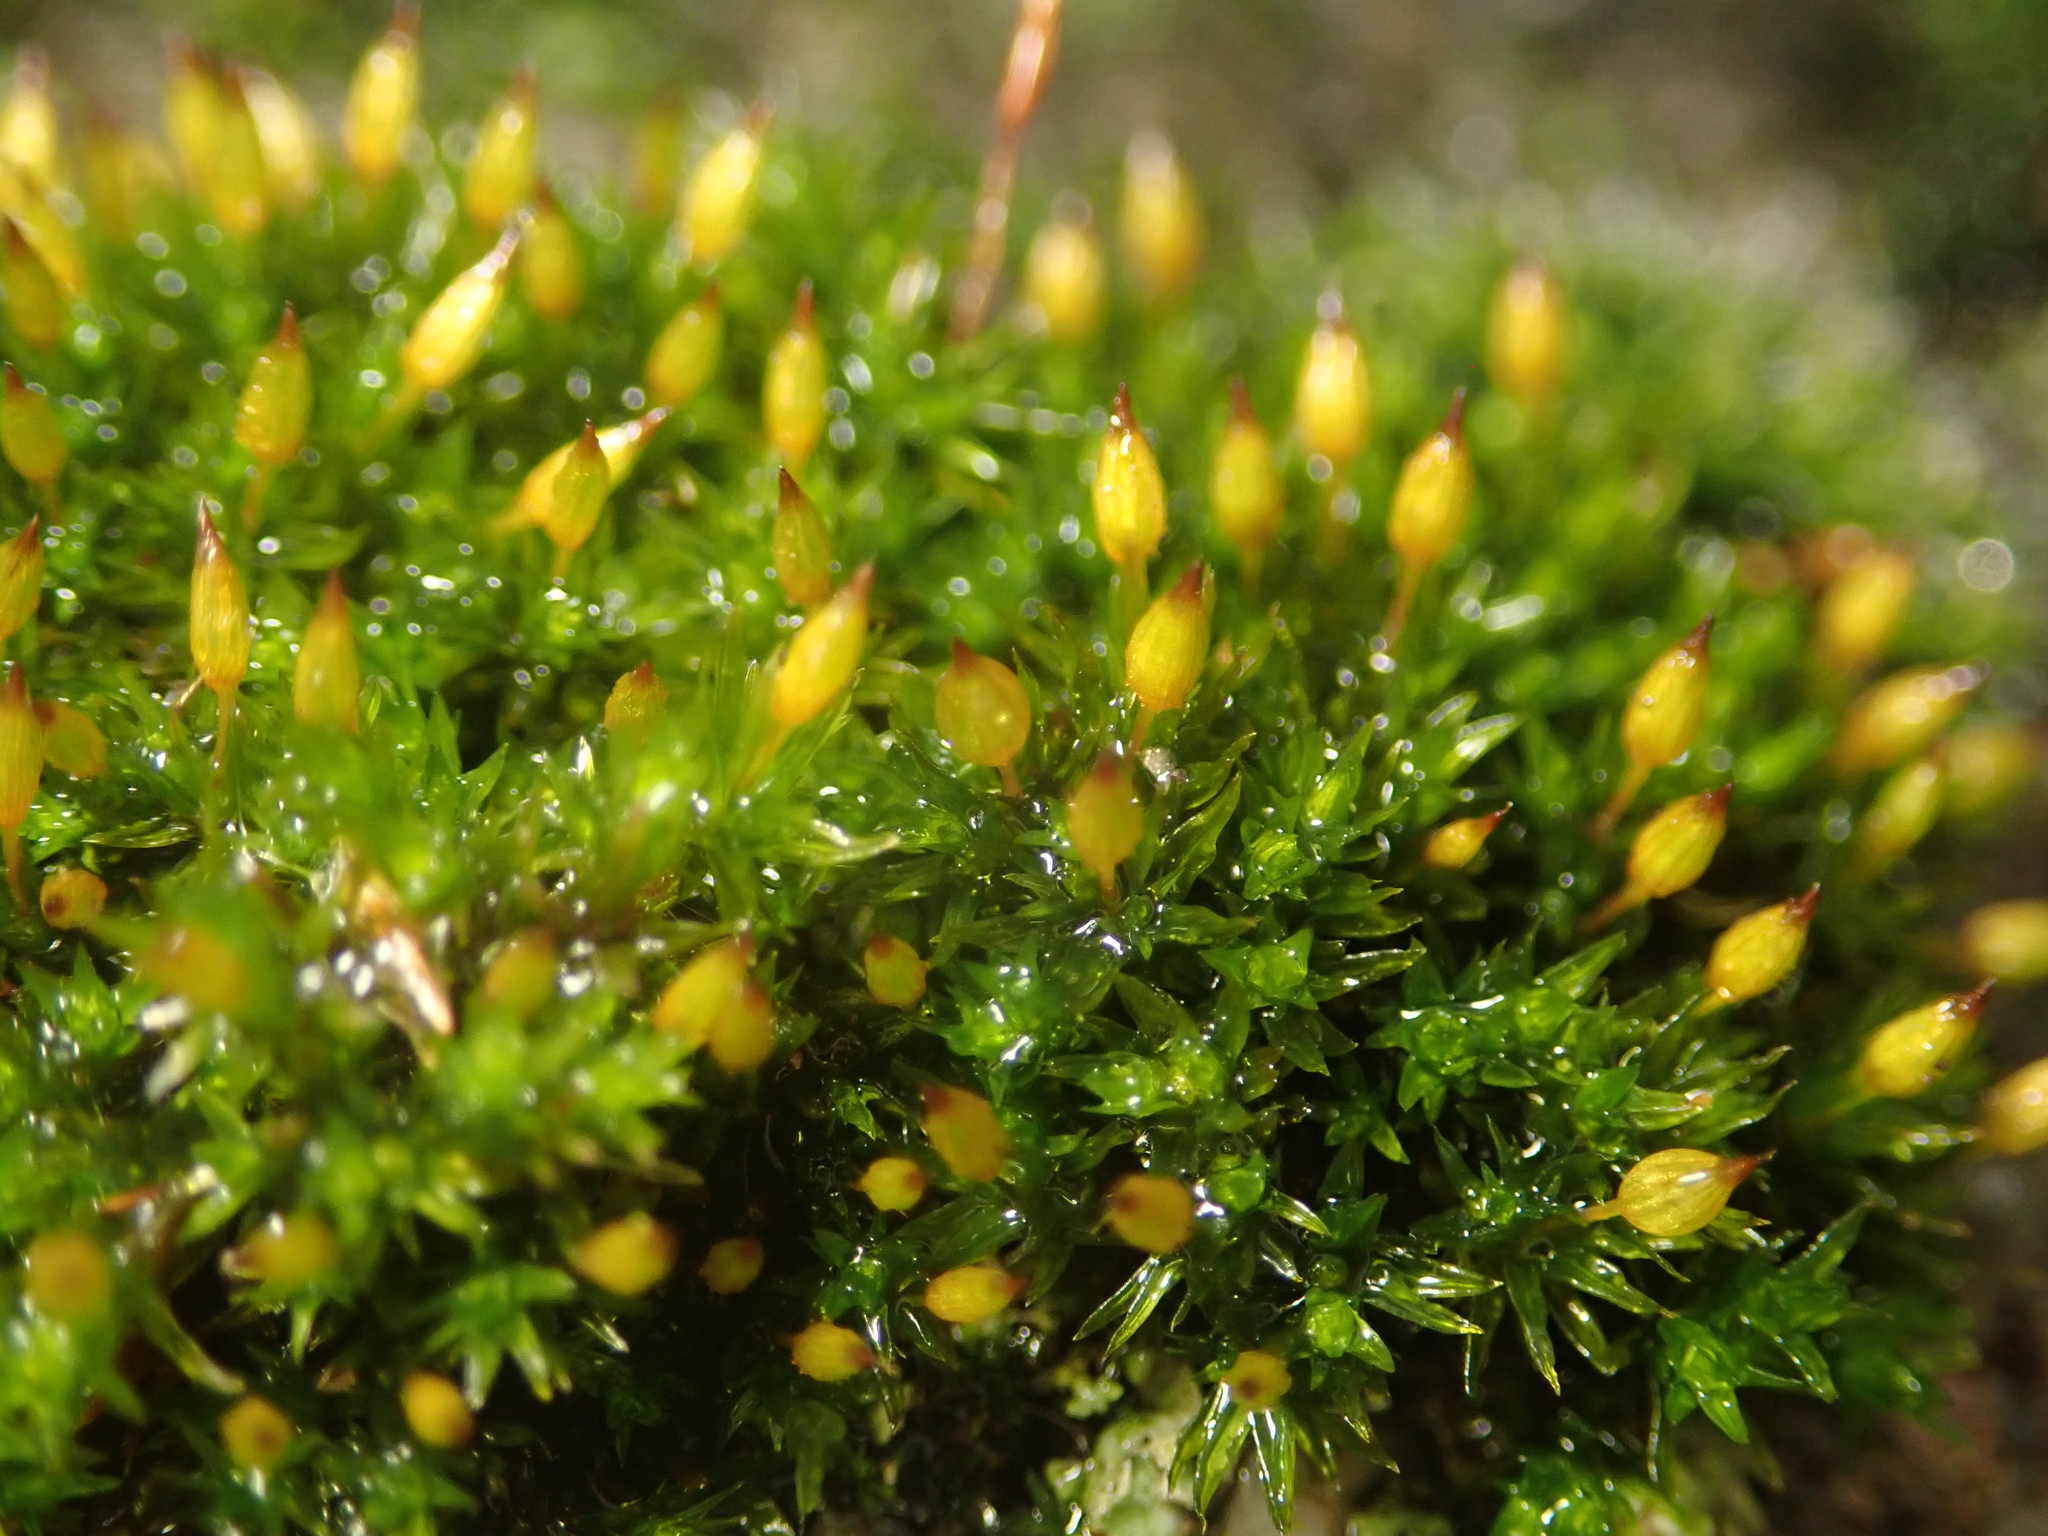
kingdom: Plantae
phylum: Bryophyta
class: Bryopsida
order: Orthotrichales
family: Orthotrichaceae
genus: Orthotrichum
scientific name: Orthotrichum anomalum
